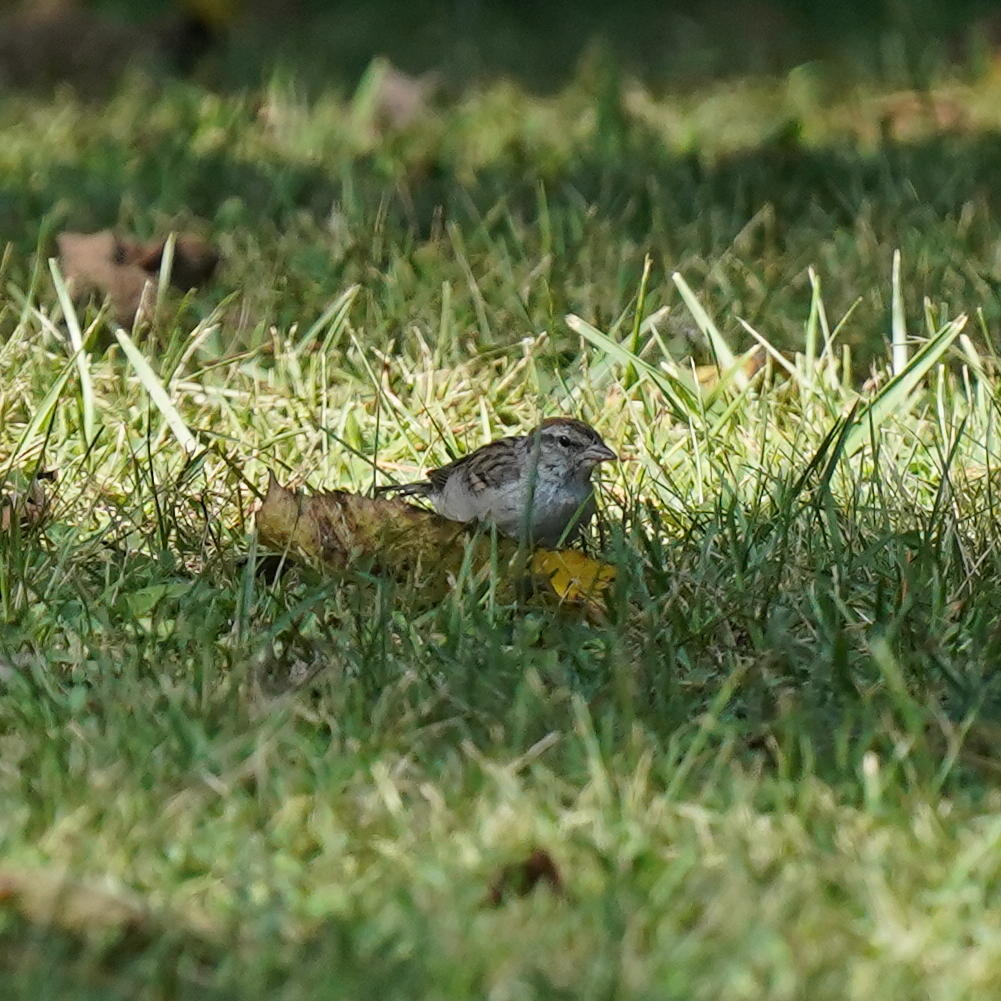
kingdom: Animalia
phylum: Chordata
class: Aves
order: Passeriformes
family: Passerellidae
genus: Spizella
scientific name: Spizella passerina
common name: Chipping sparrow
